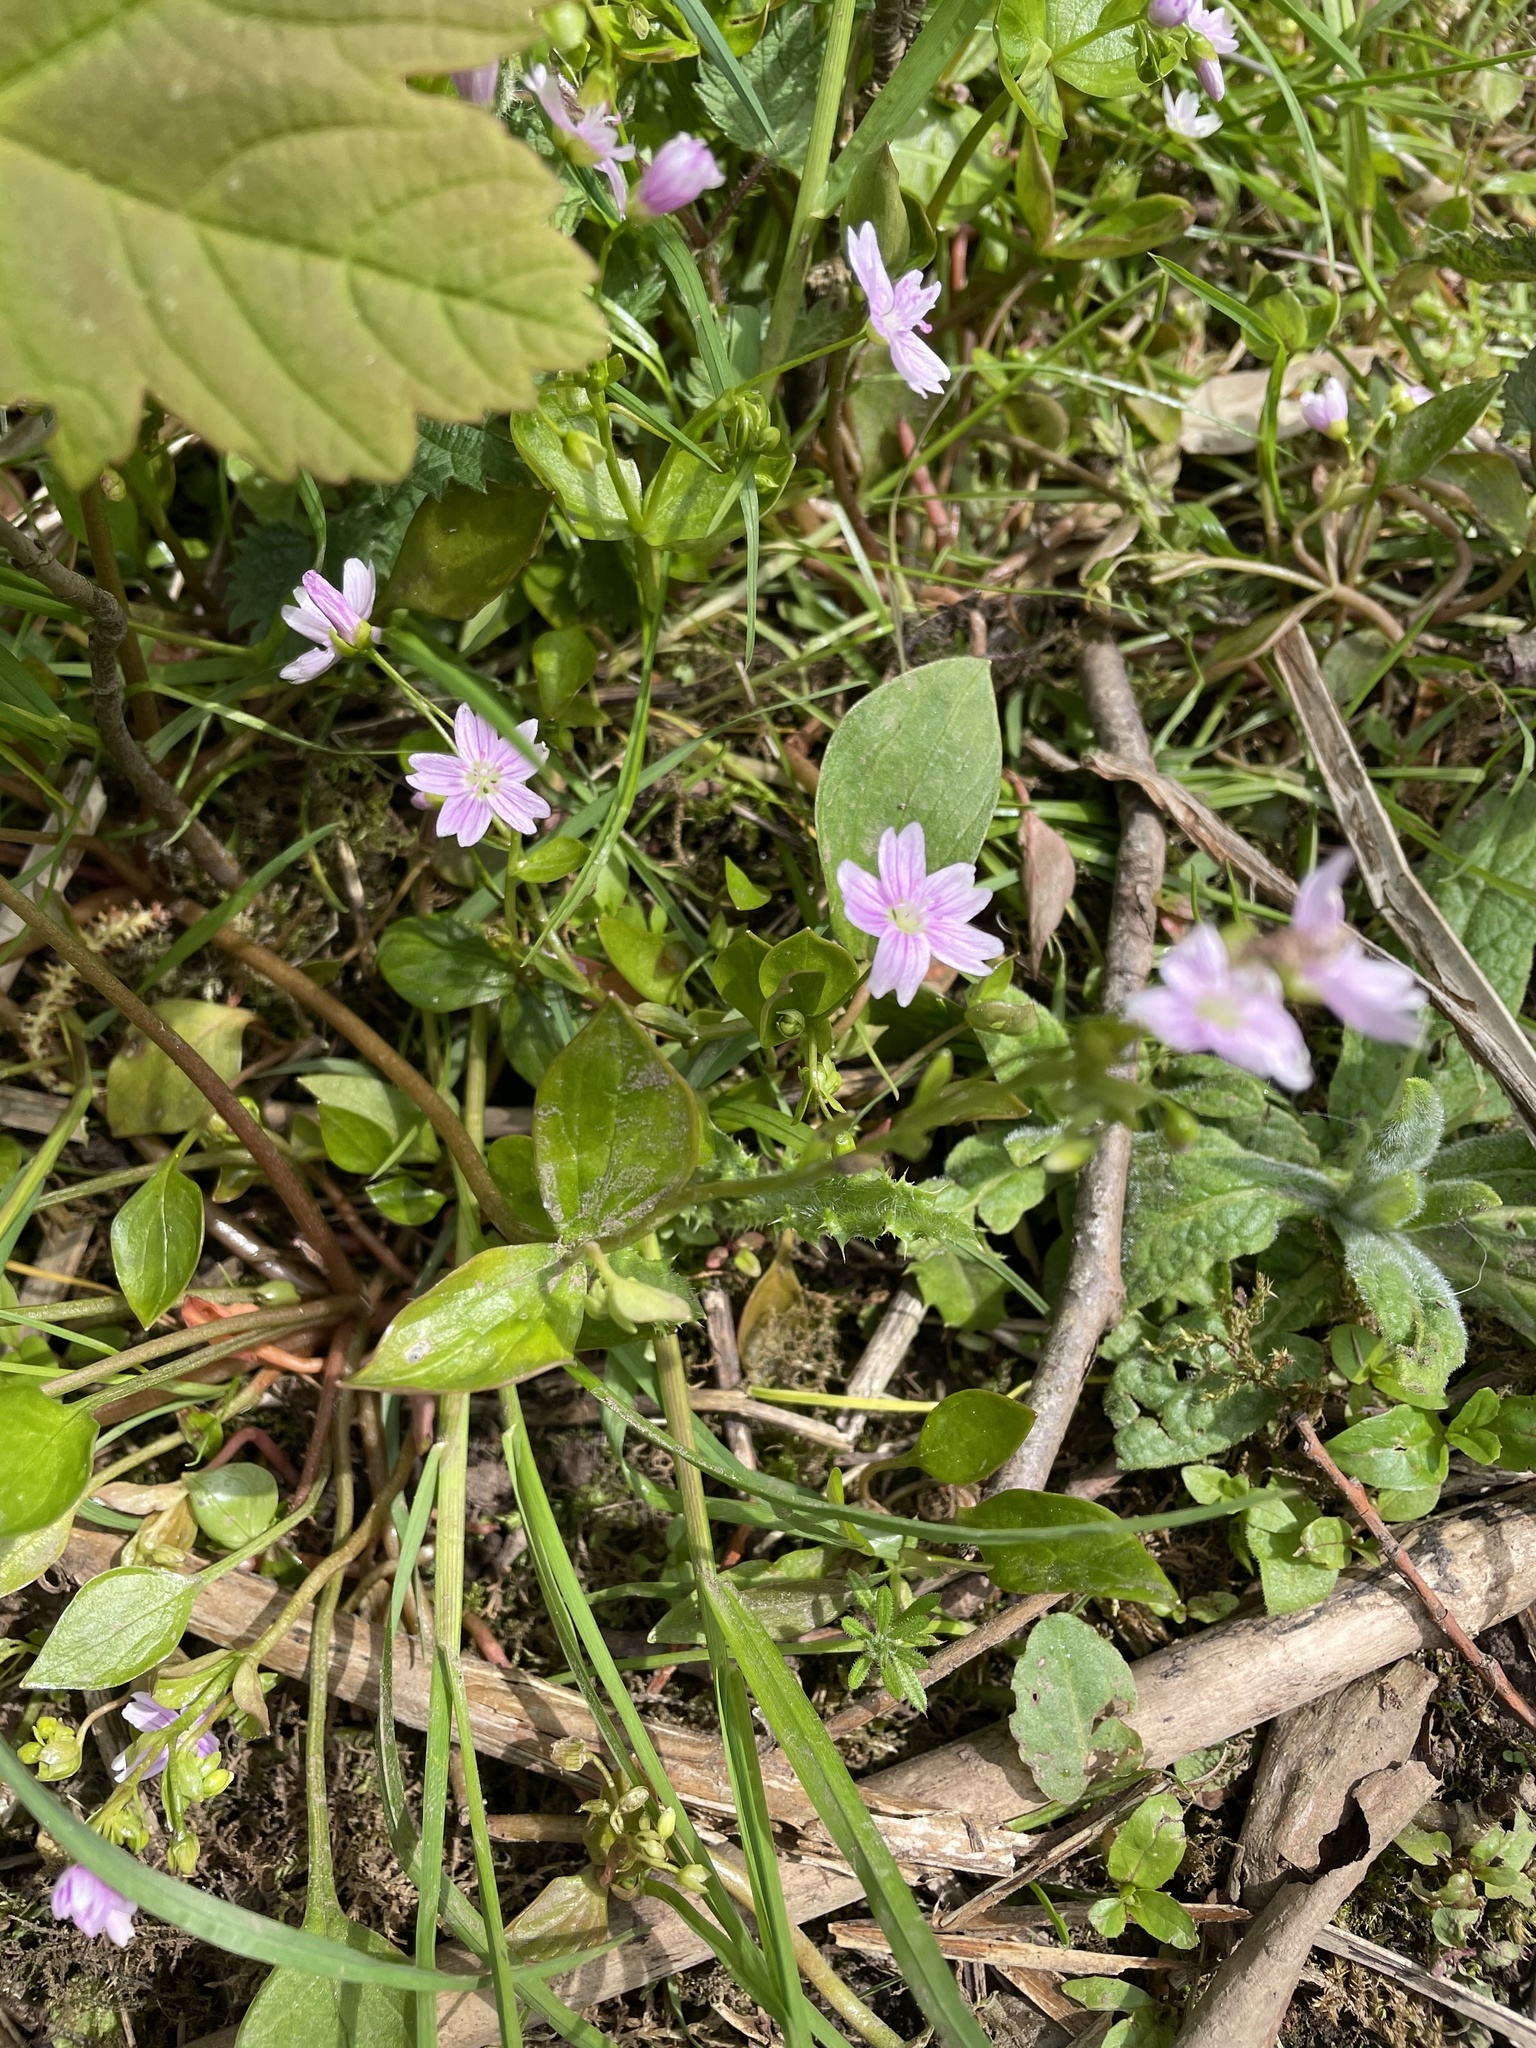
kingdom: Plantae
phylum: Tracheophyta
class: Magnoliopsida
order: Caryophyllales
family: Montiaceae
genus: Claytonia
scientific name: Claytonia sibirica
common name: Pink purslane
